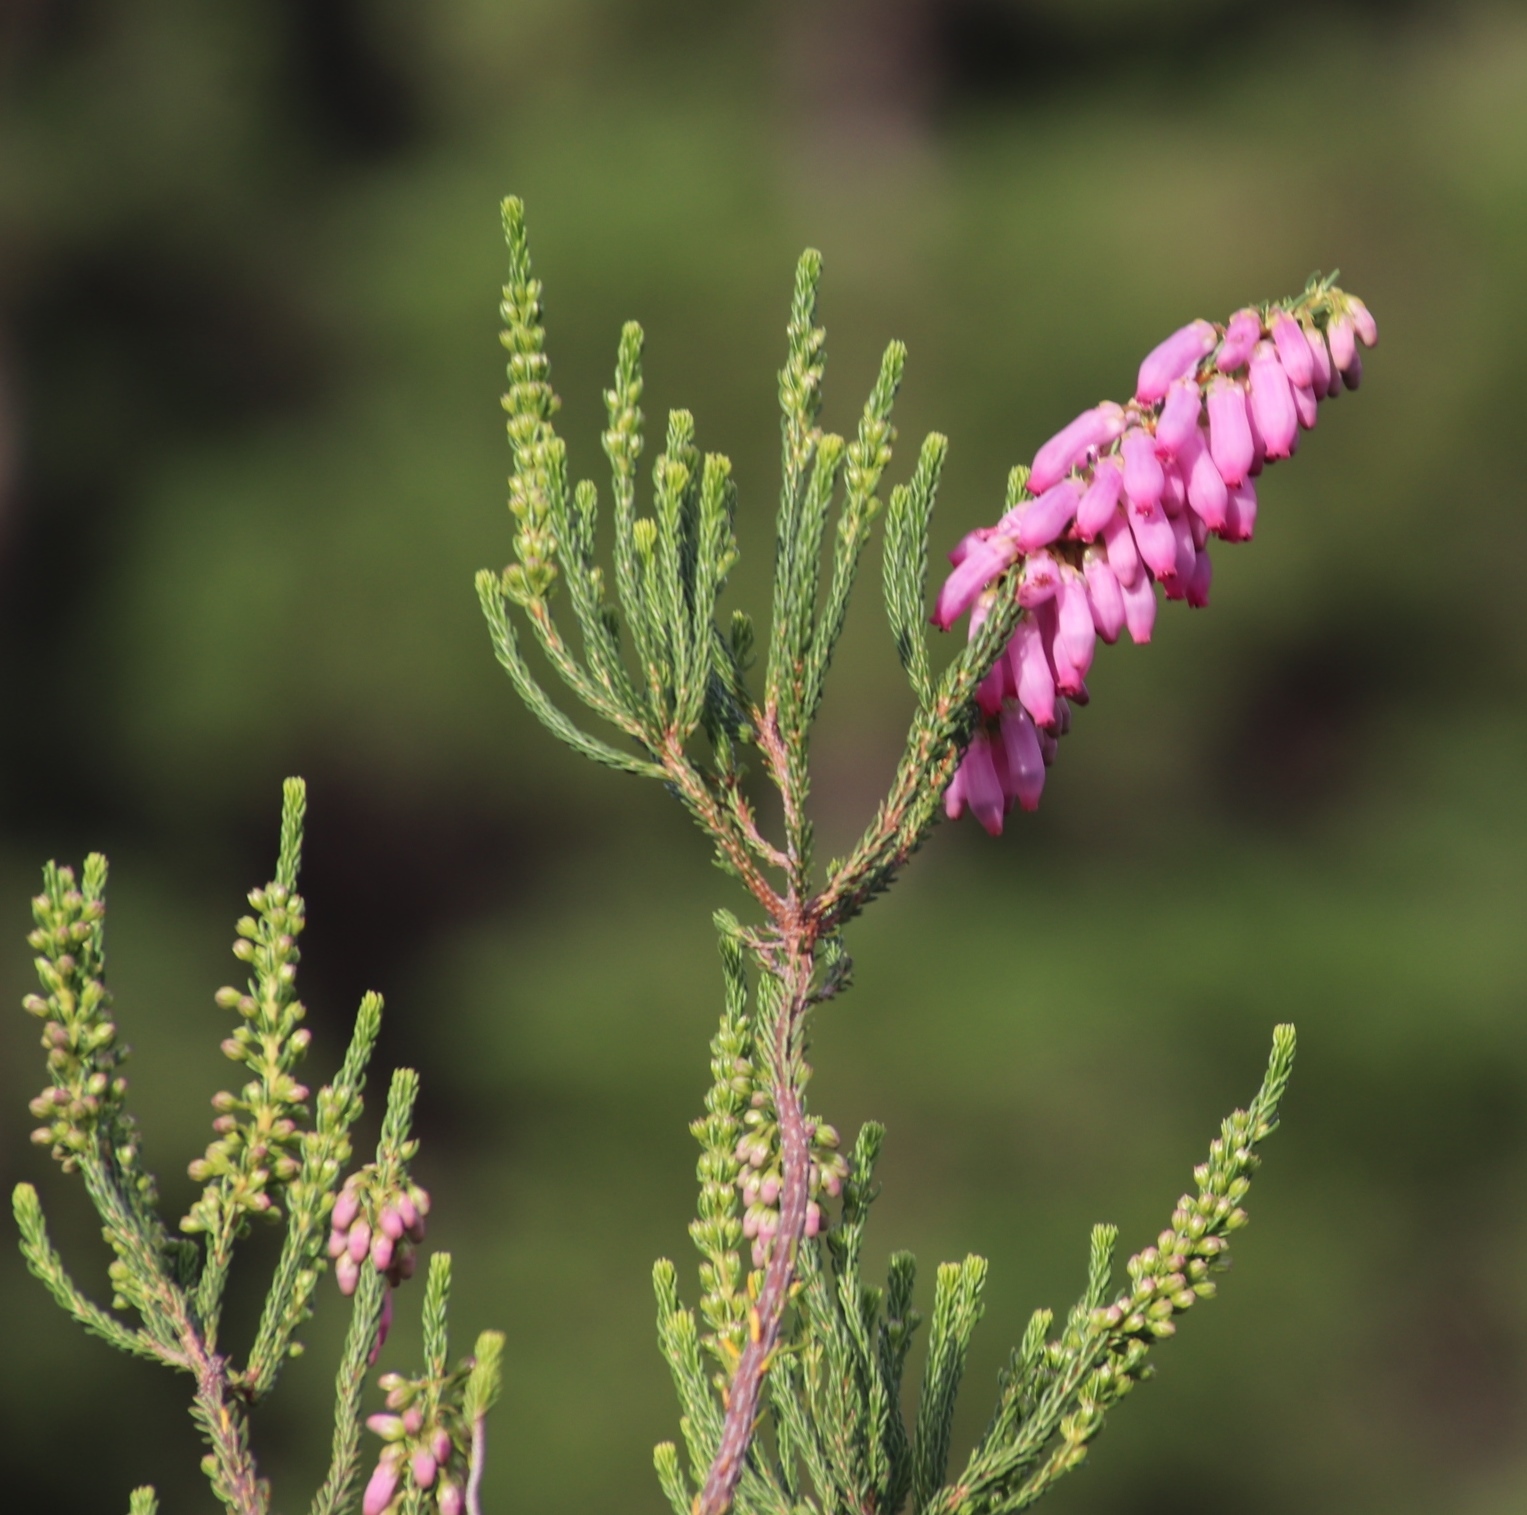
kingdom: Plantae
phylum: Tracheophyta
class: Magnoliopsida
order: Ericales
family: Ericaceae
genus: Erica
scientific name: Erica mammosa
